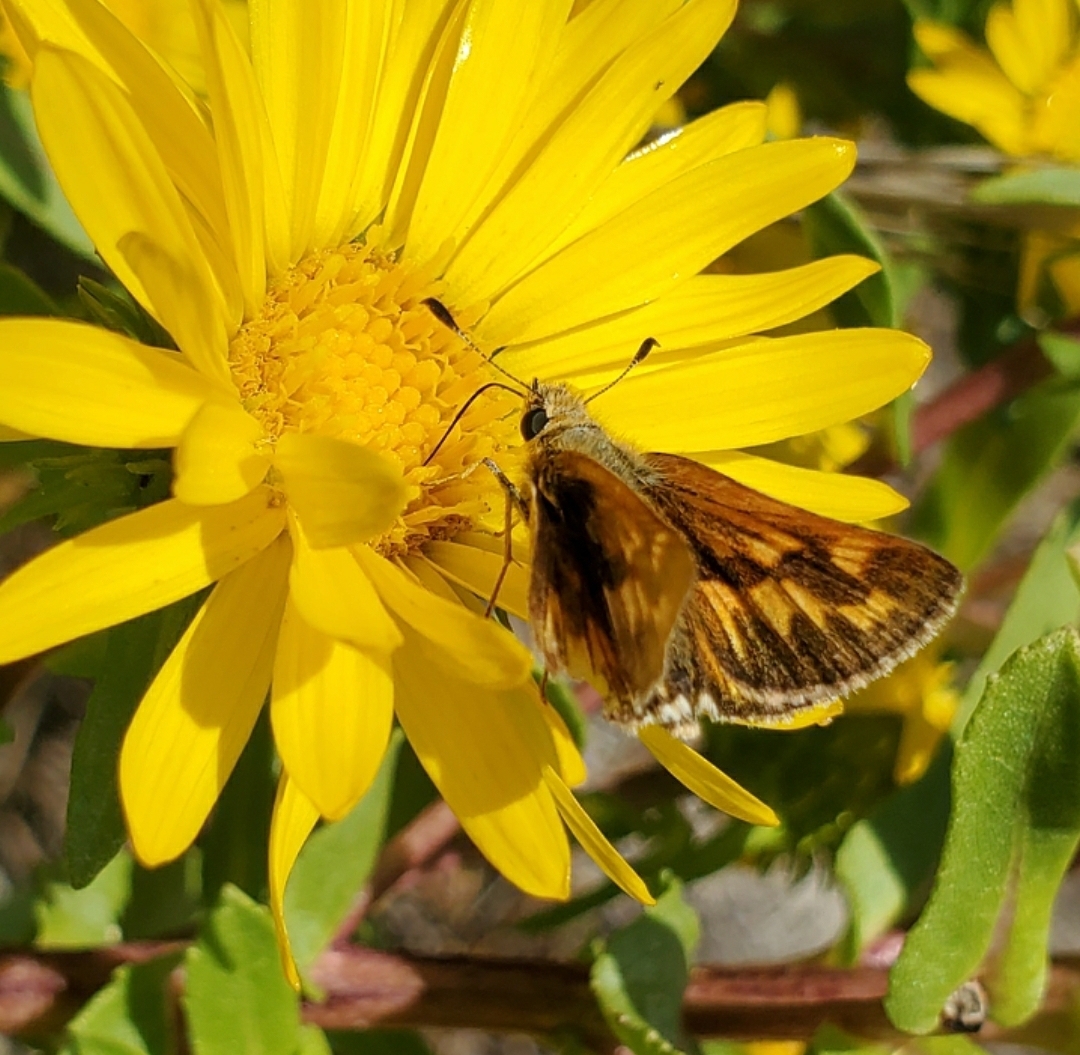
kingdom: Animalia
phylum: Arthropoda
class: Insecta
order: Lepidoptera
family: Hesperiidae
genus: Ochlodes
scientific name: Ochlodes sylvanoides
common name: Woodland skipper
